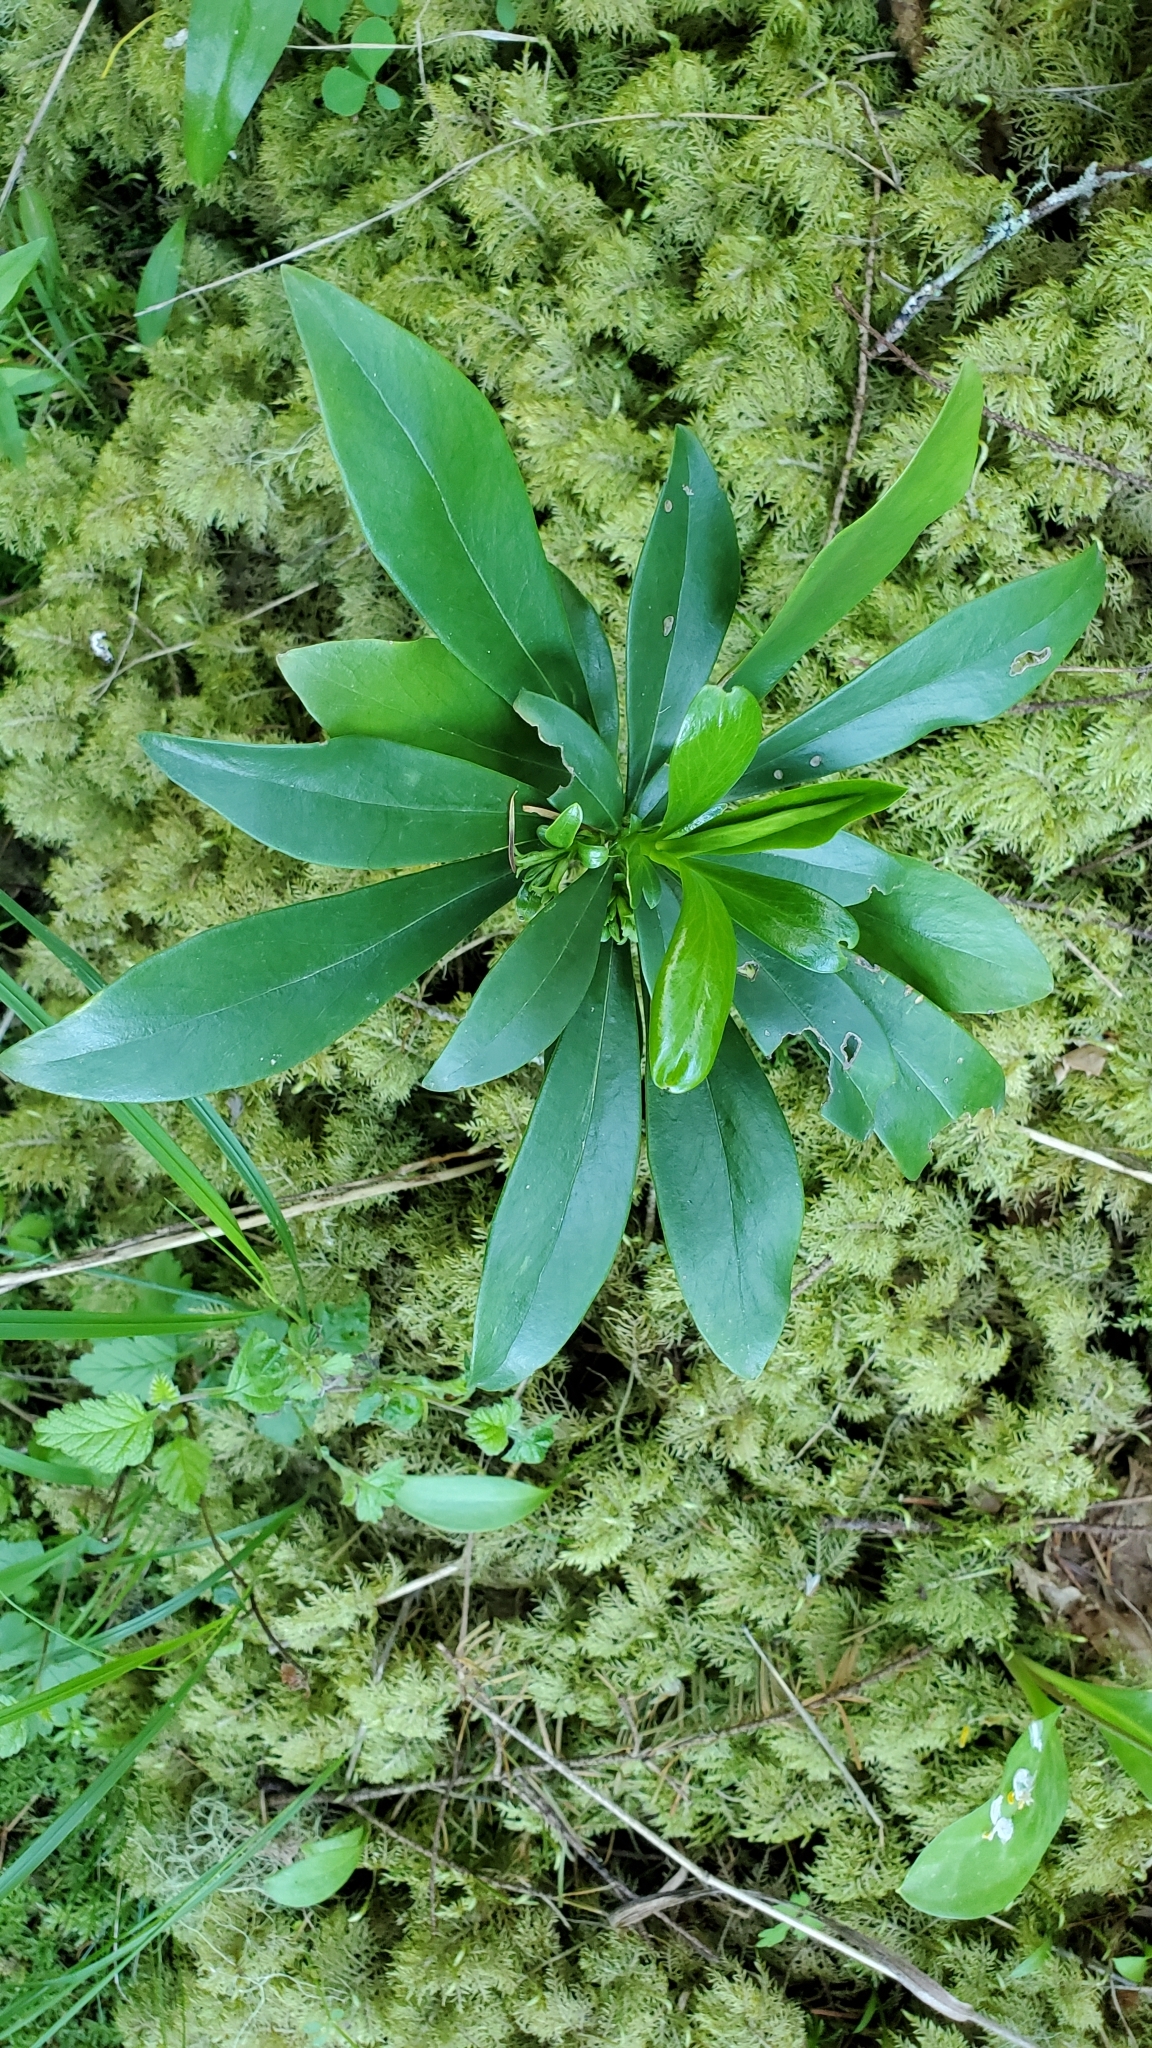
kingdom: Plantae
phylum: Tracheophyta
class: Magnoliopsida
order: Malvales
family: Thymelaeaceae
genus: Daphne
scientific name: Daphne laureola
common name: Spurge-laurel
